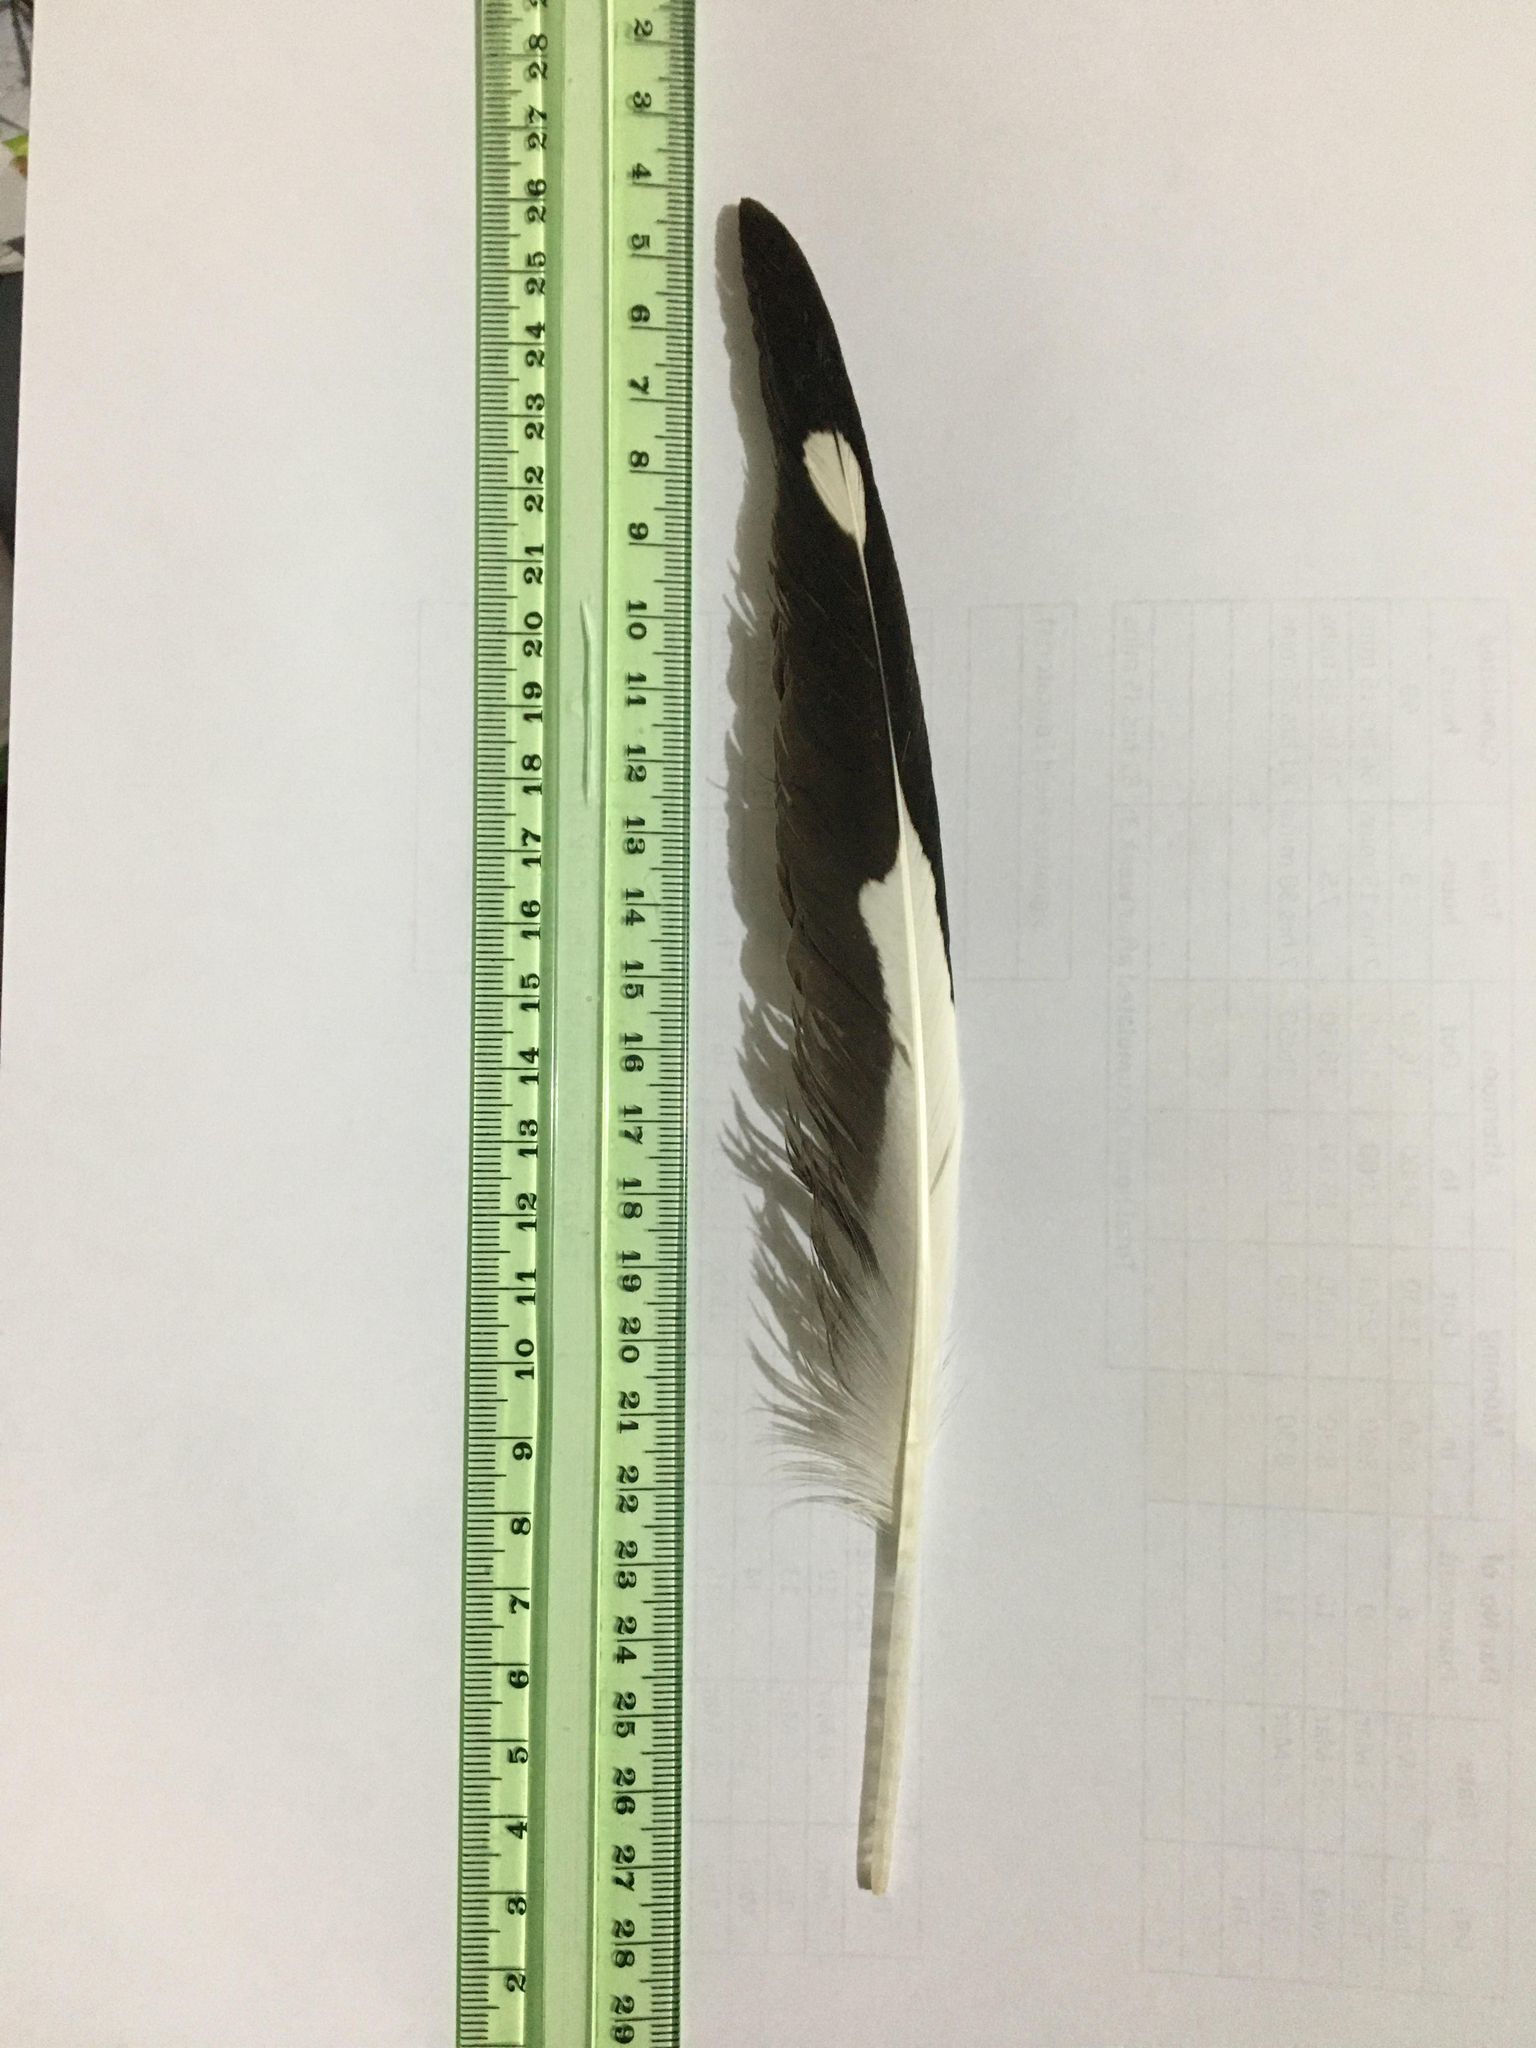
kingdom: Animalia
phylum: Chordata
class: Aves
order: Charadriiformes
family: Laridae
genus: Chroicocephalus
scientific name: Chroicocephalus novaehollandiae
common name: Silver gull
